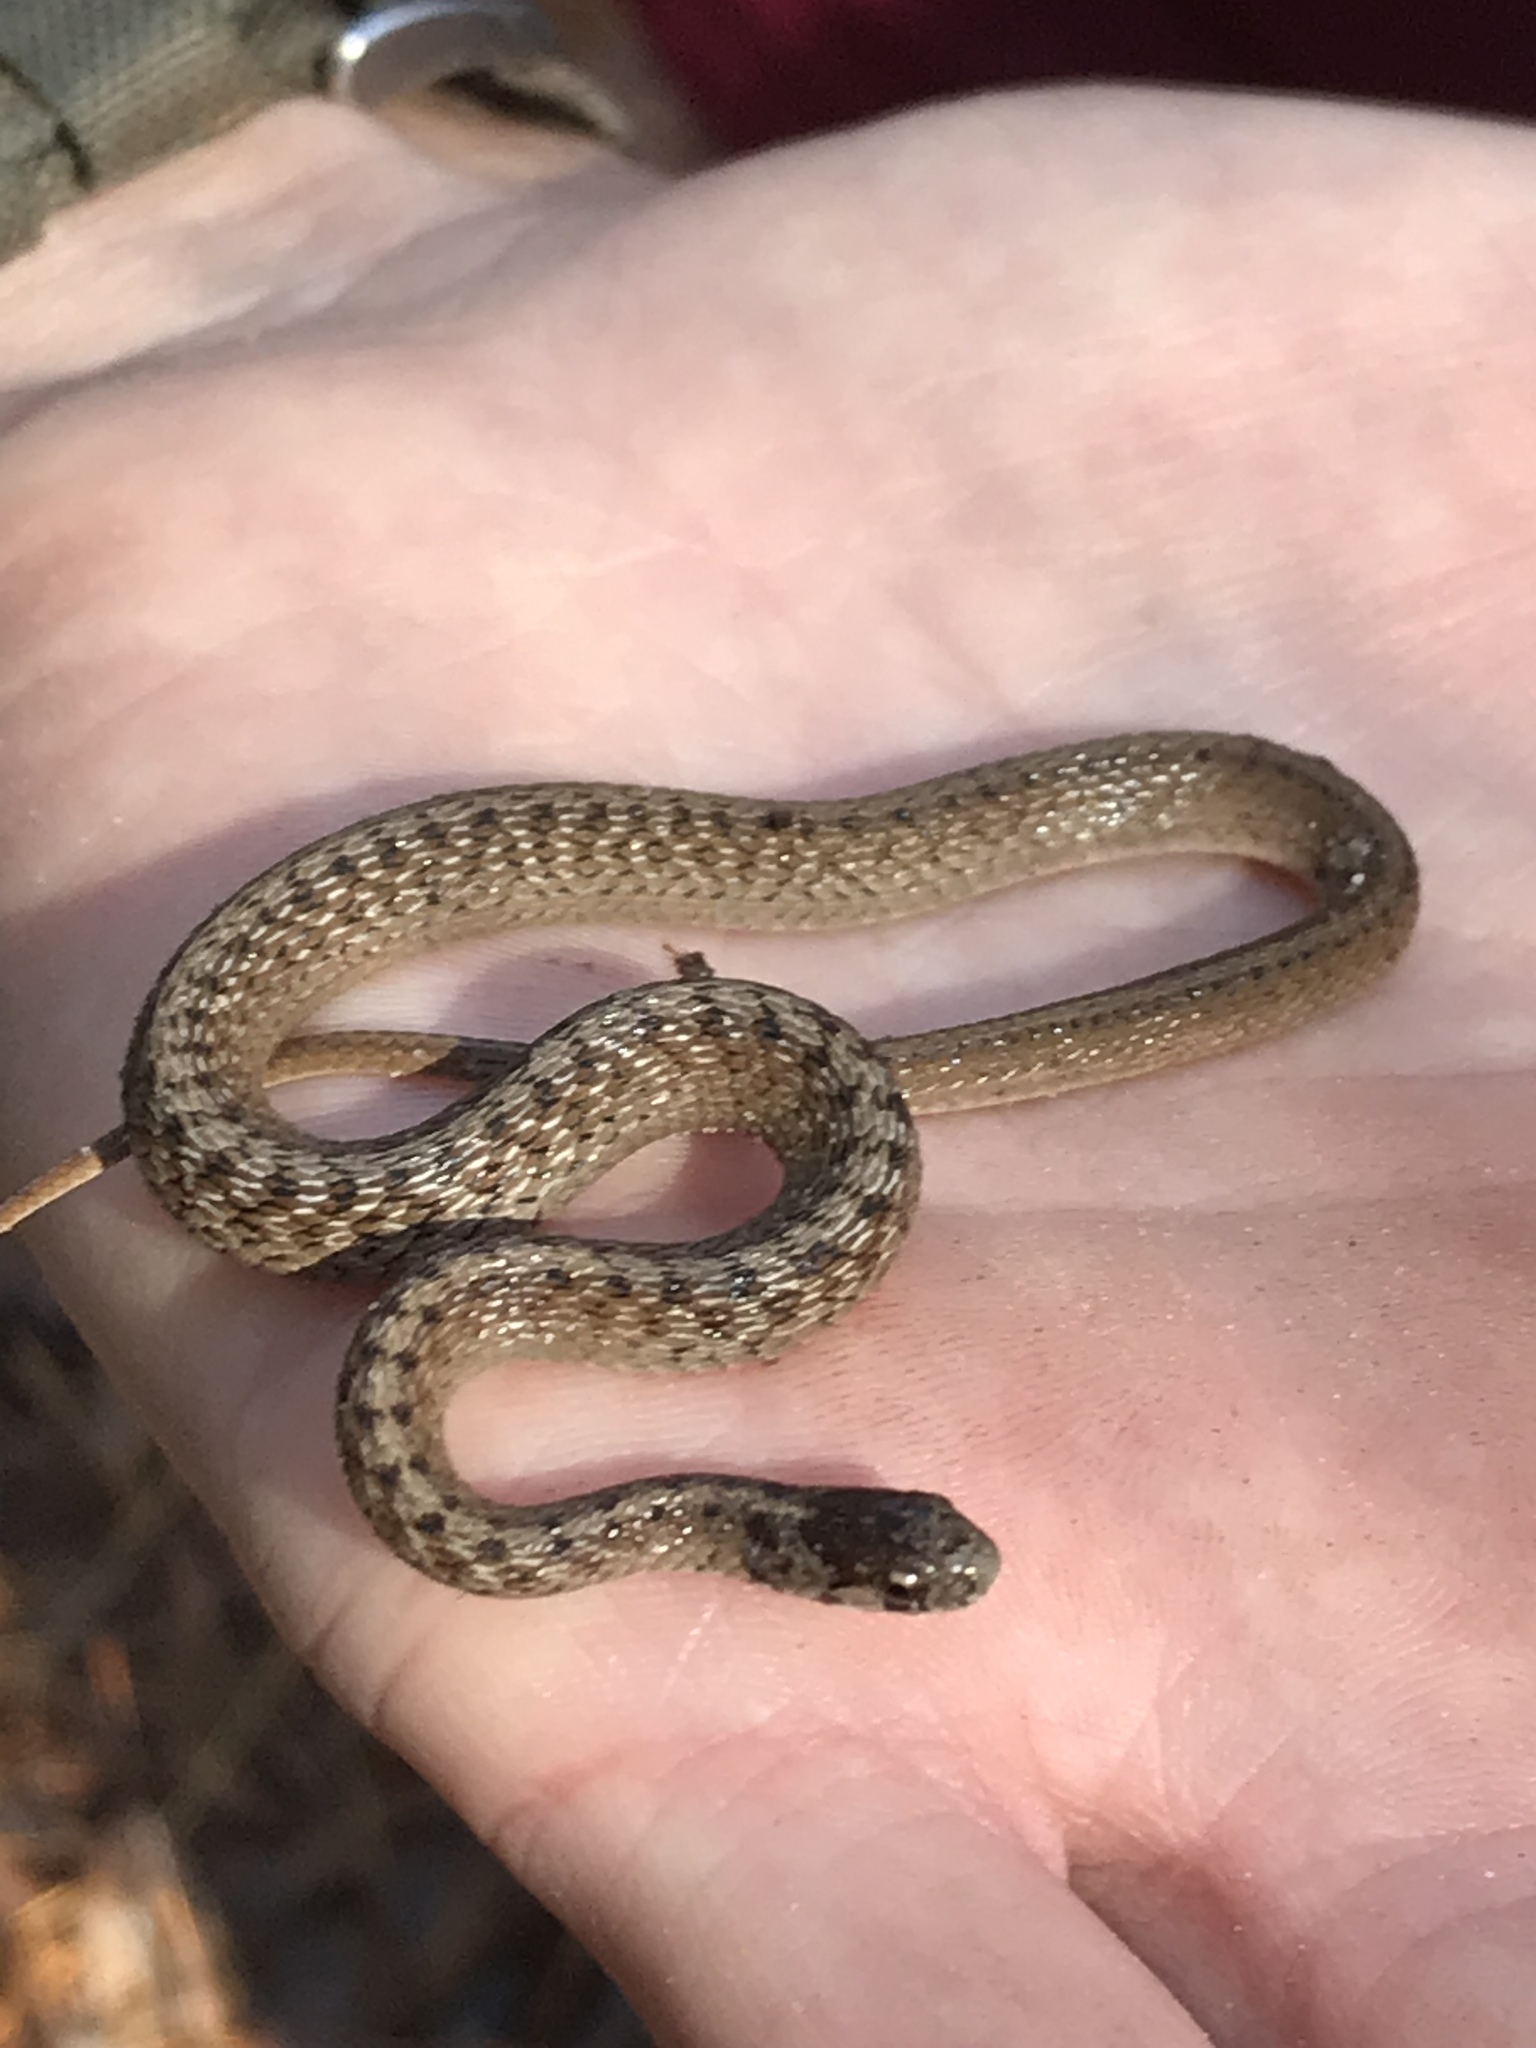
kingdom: Animalia
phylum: Chordata
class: Squamata
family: Colubridae
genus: Storeria
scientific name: Storeria dekayi
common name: (dekay’s) brown snake
